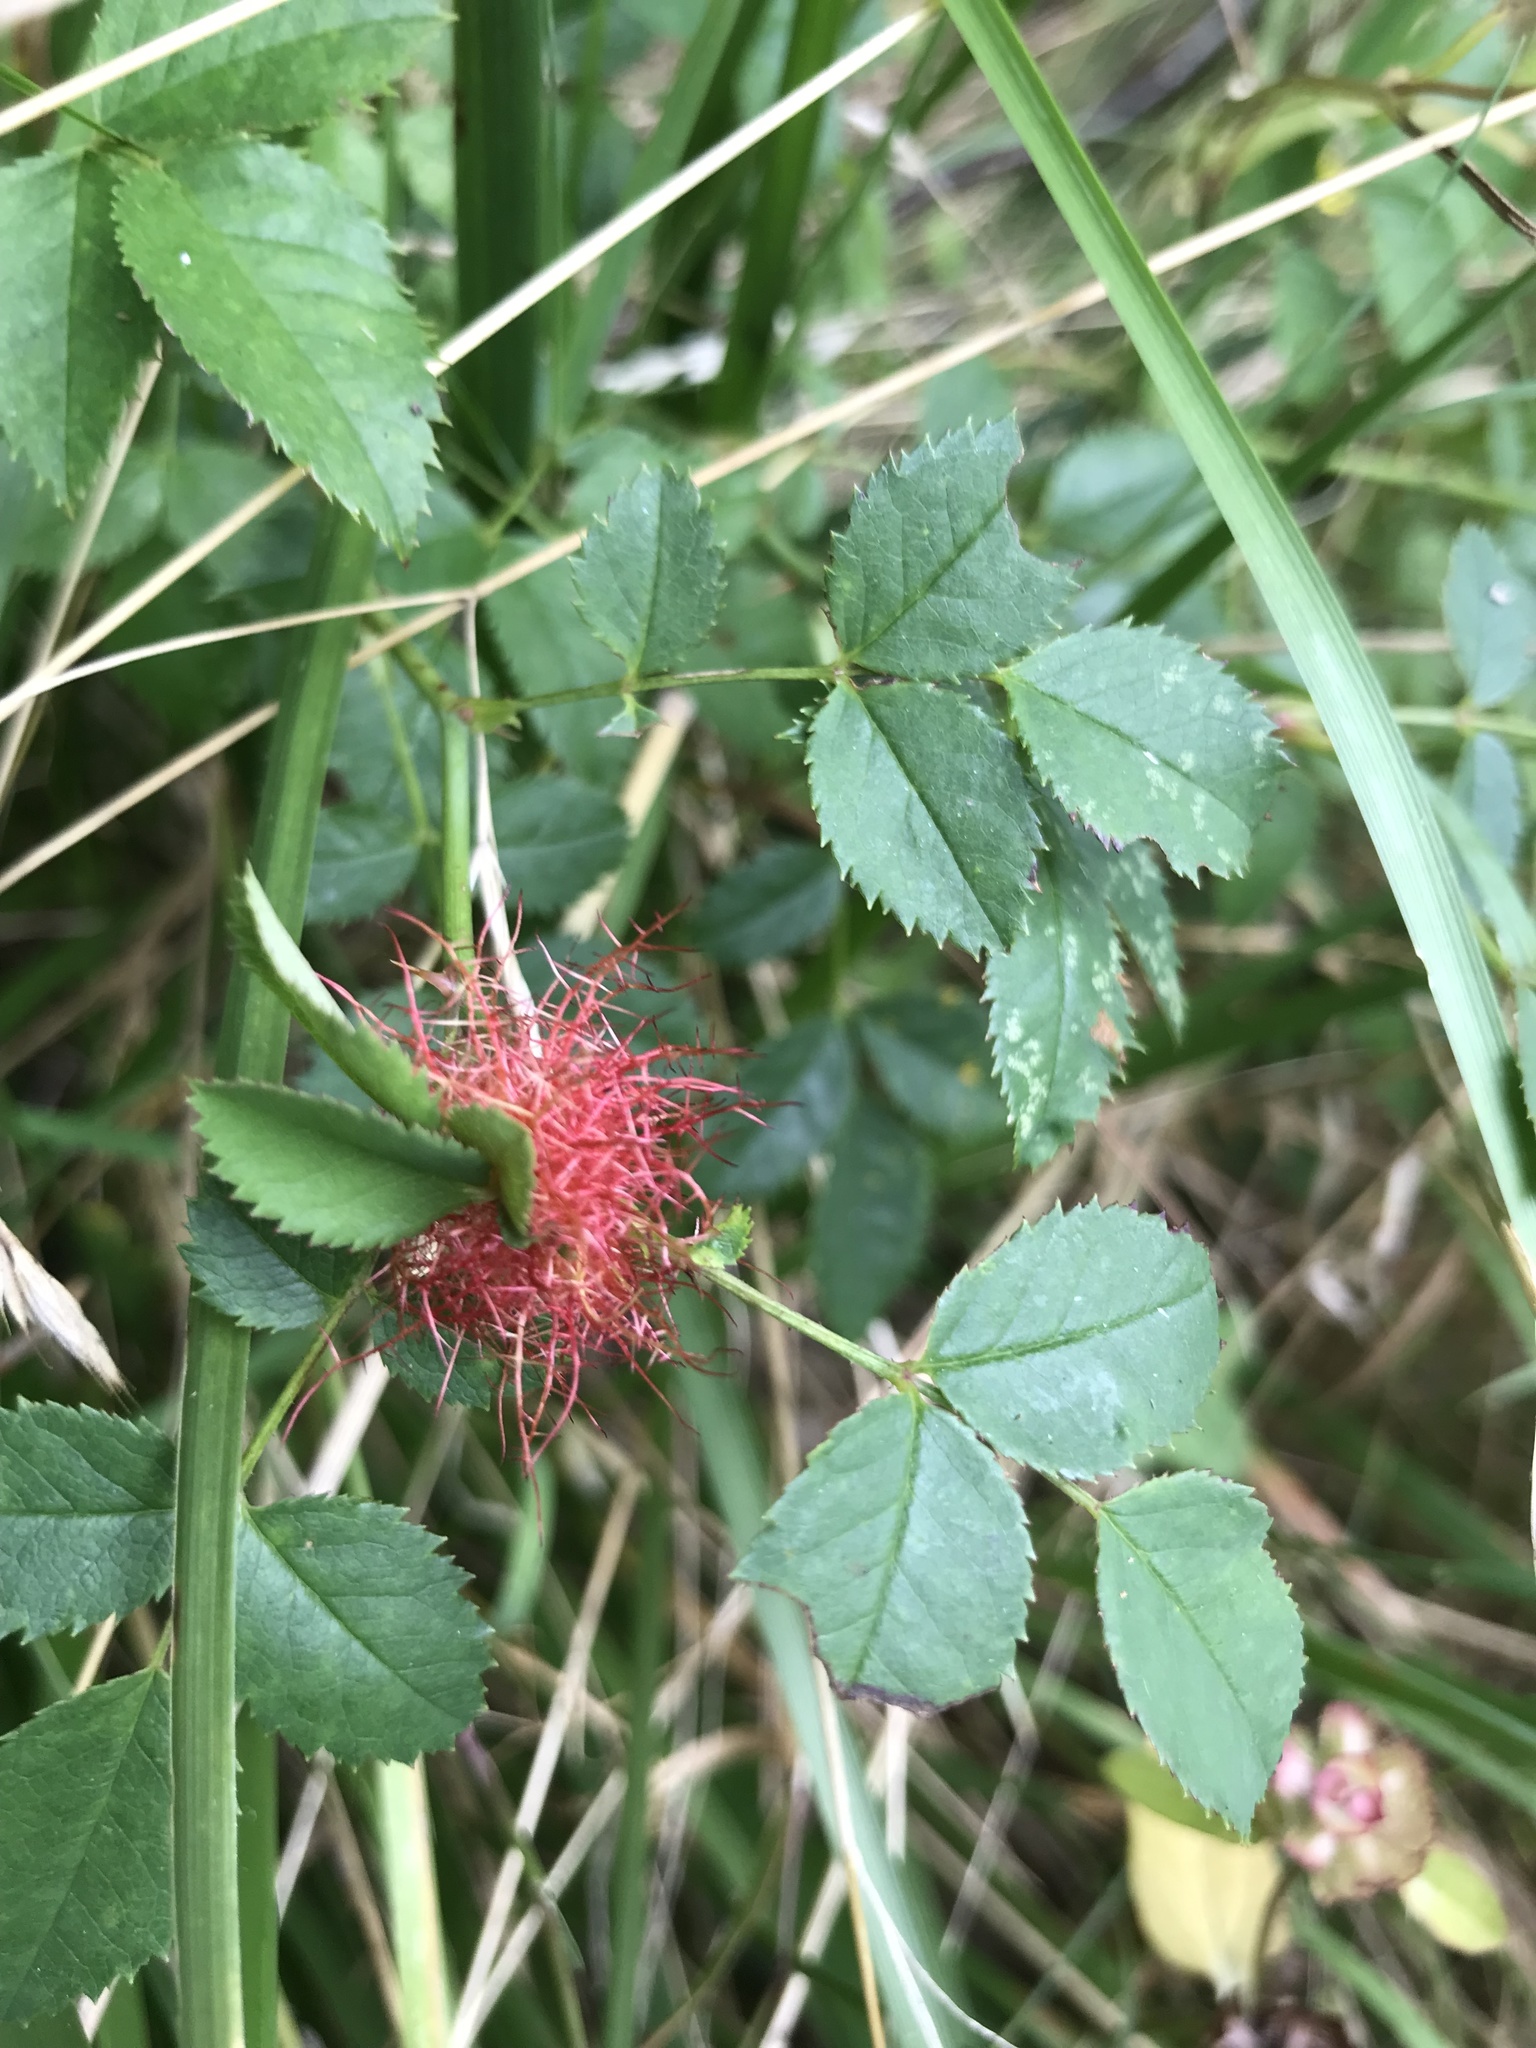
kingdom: Animalia
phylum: Arthropoda
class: Insecta
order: Hymenoptera
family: Cynipidae
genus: Diplolepis
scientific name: Diplolepis rosae
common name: Bedeguar gall
